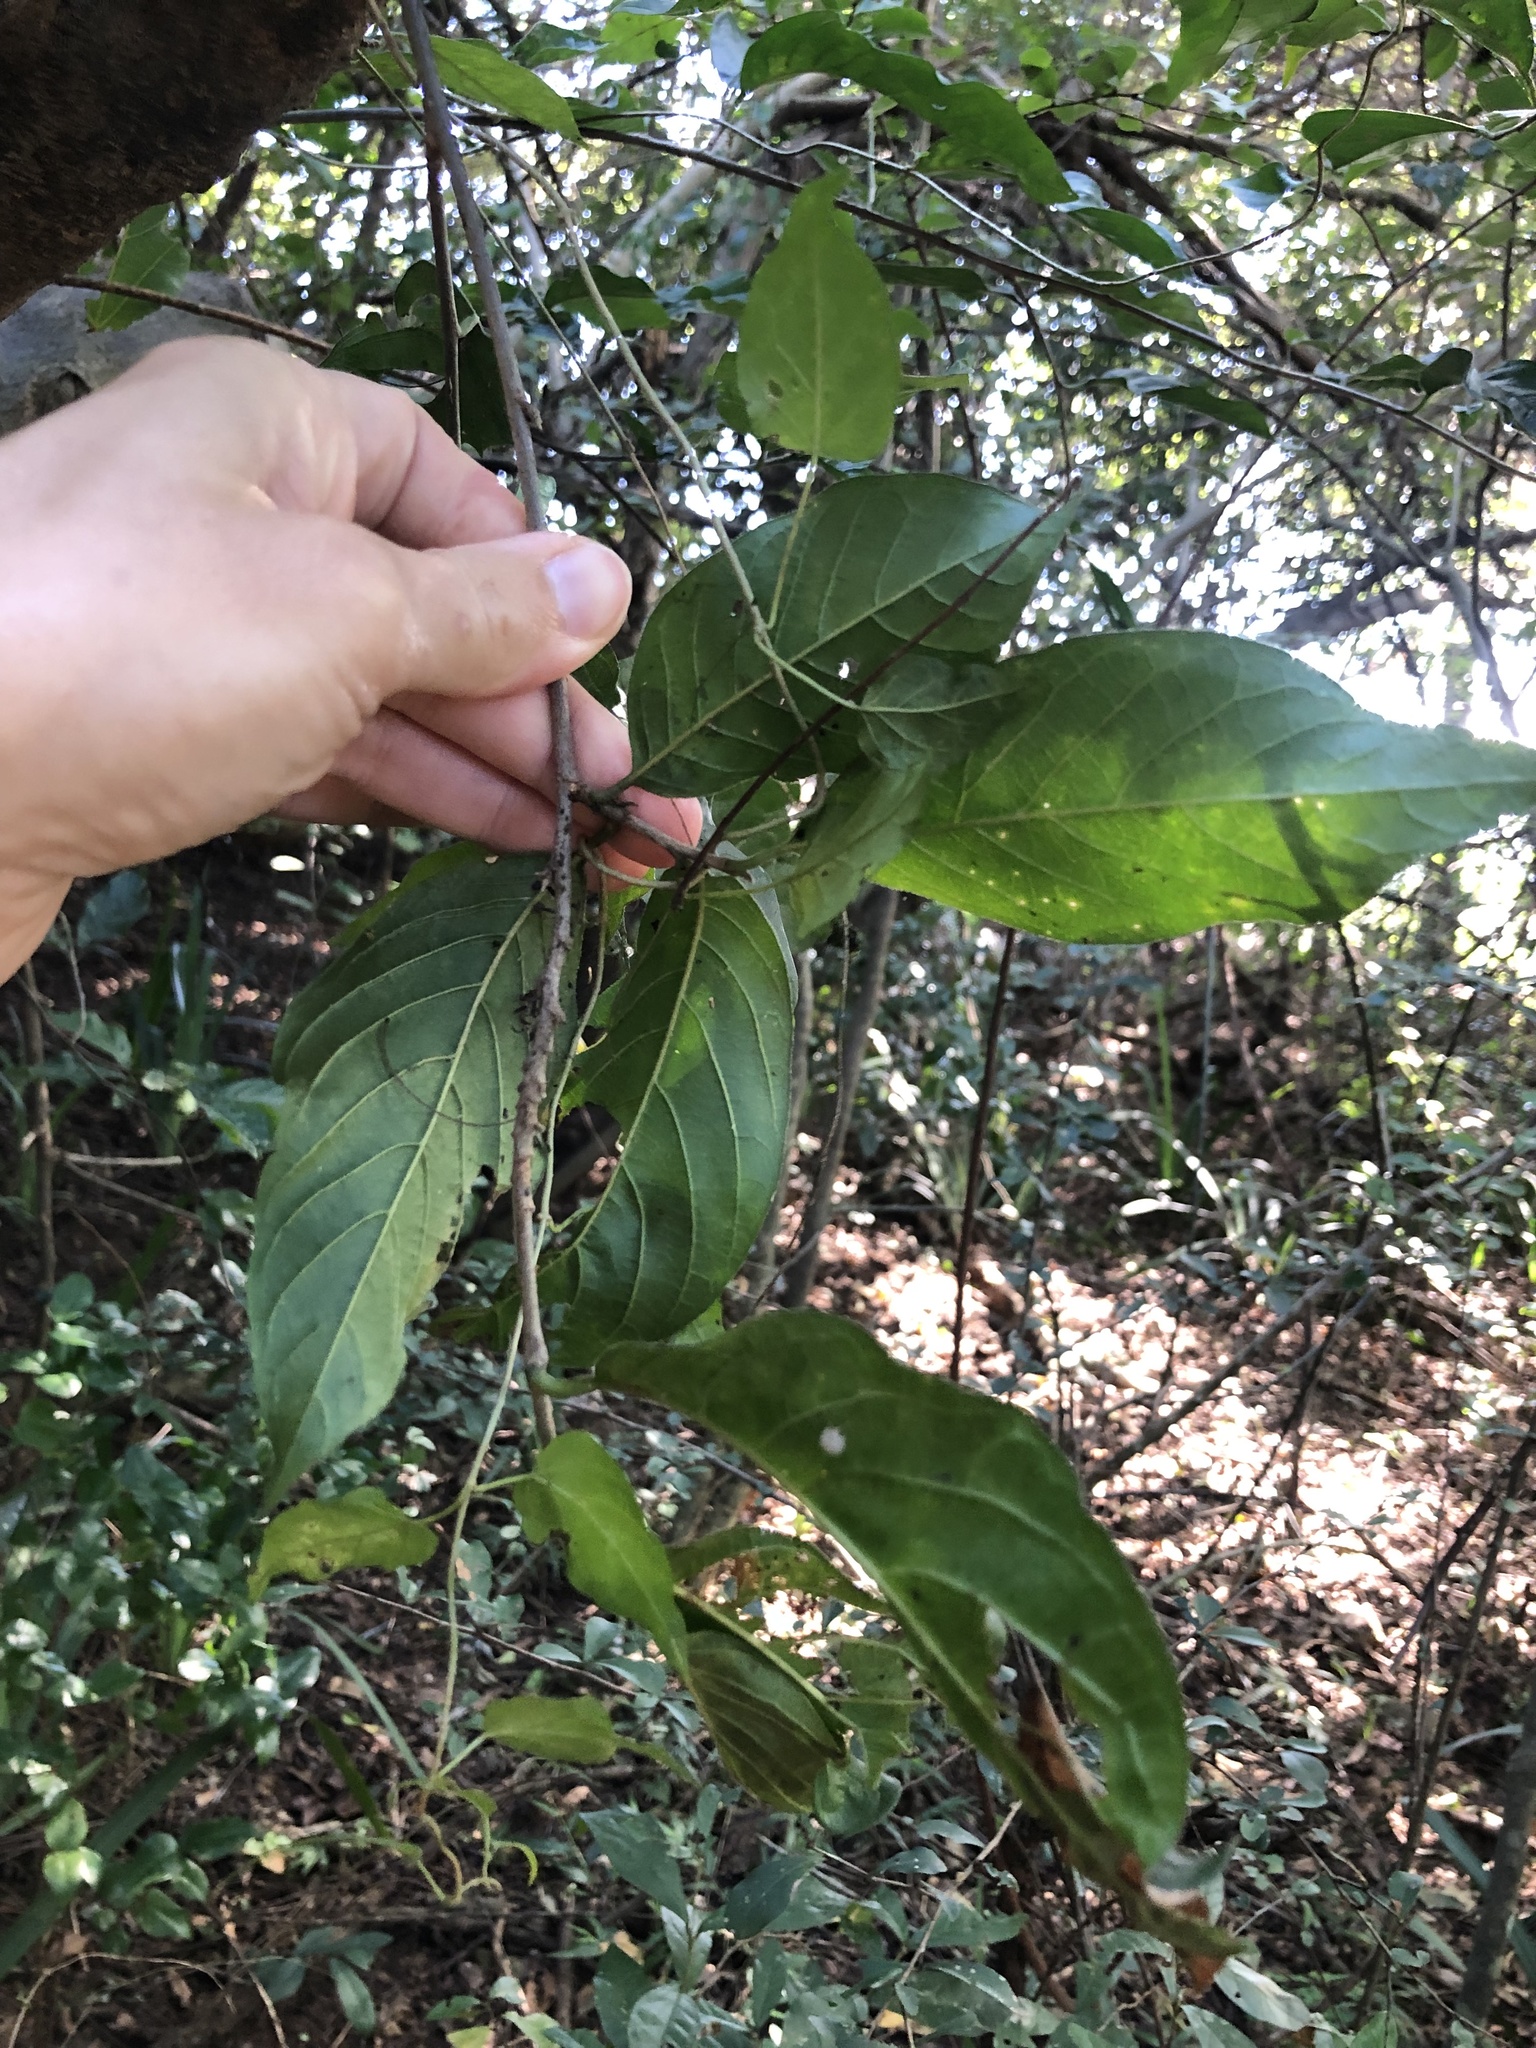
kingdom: Plantae
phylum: Tracheophyta
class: Magnoliopsida
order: Sapindales
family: Meliaceae
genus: Turraea
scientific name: Turraea floribunda
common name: Honeysuckle tree
